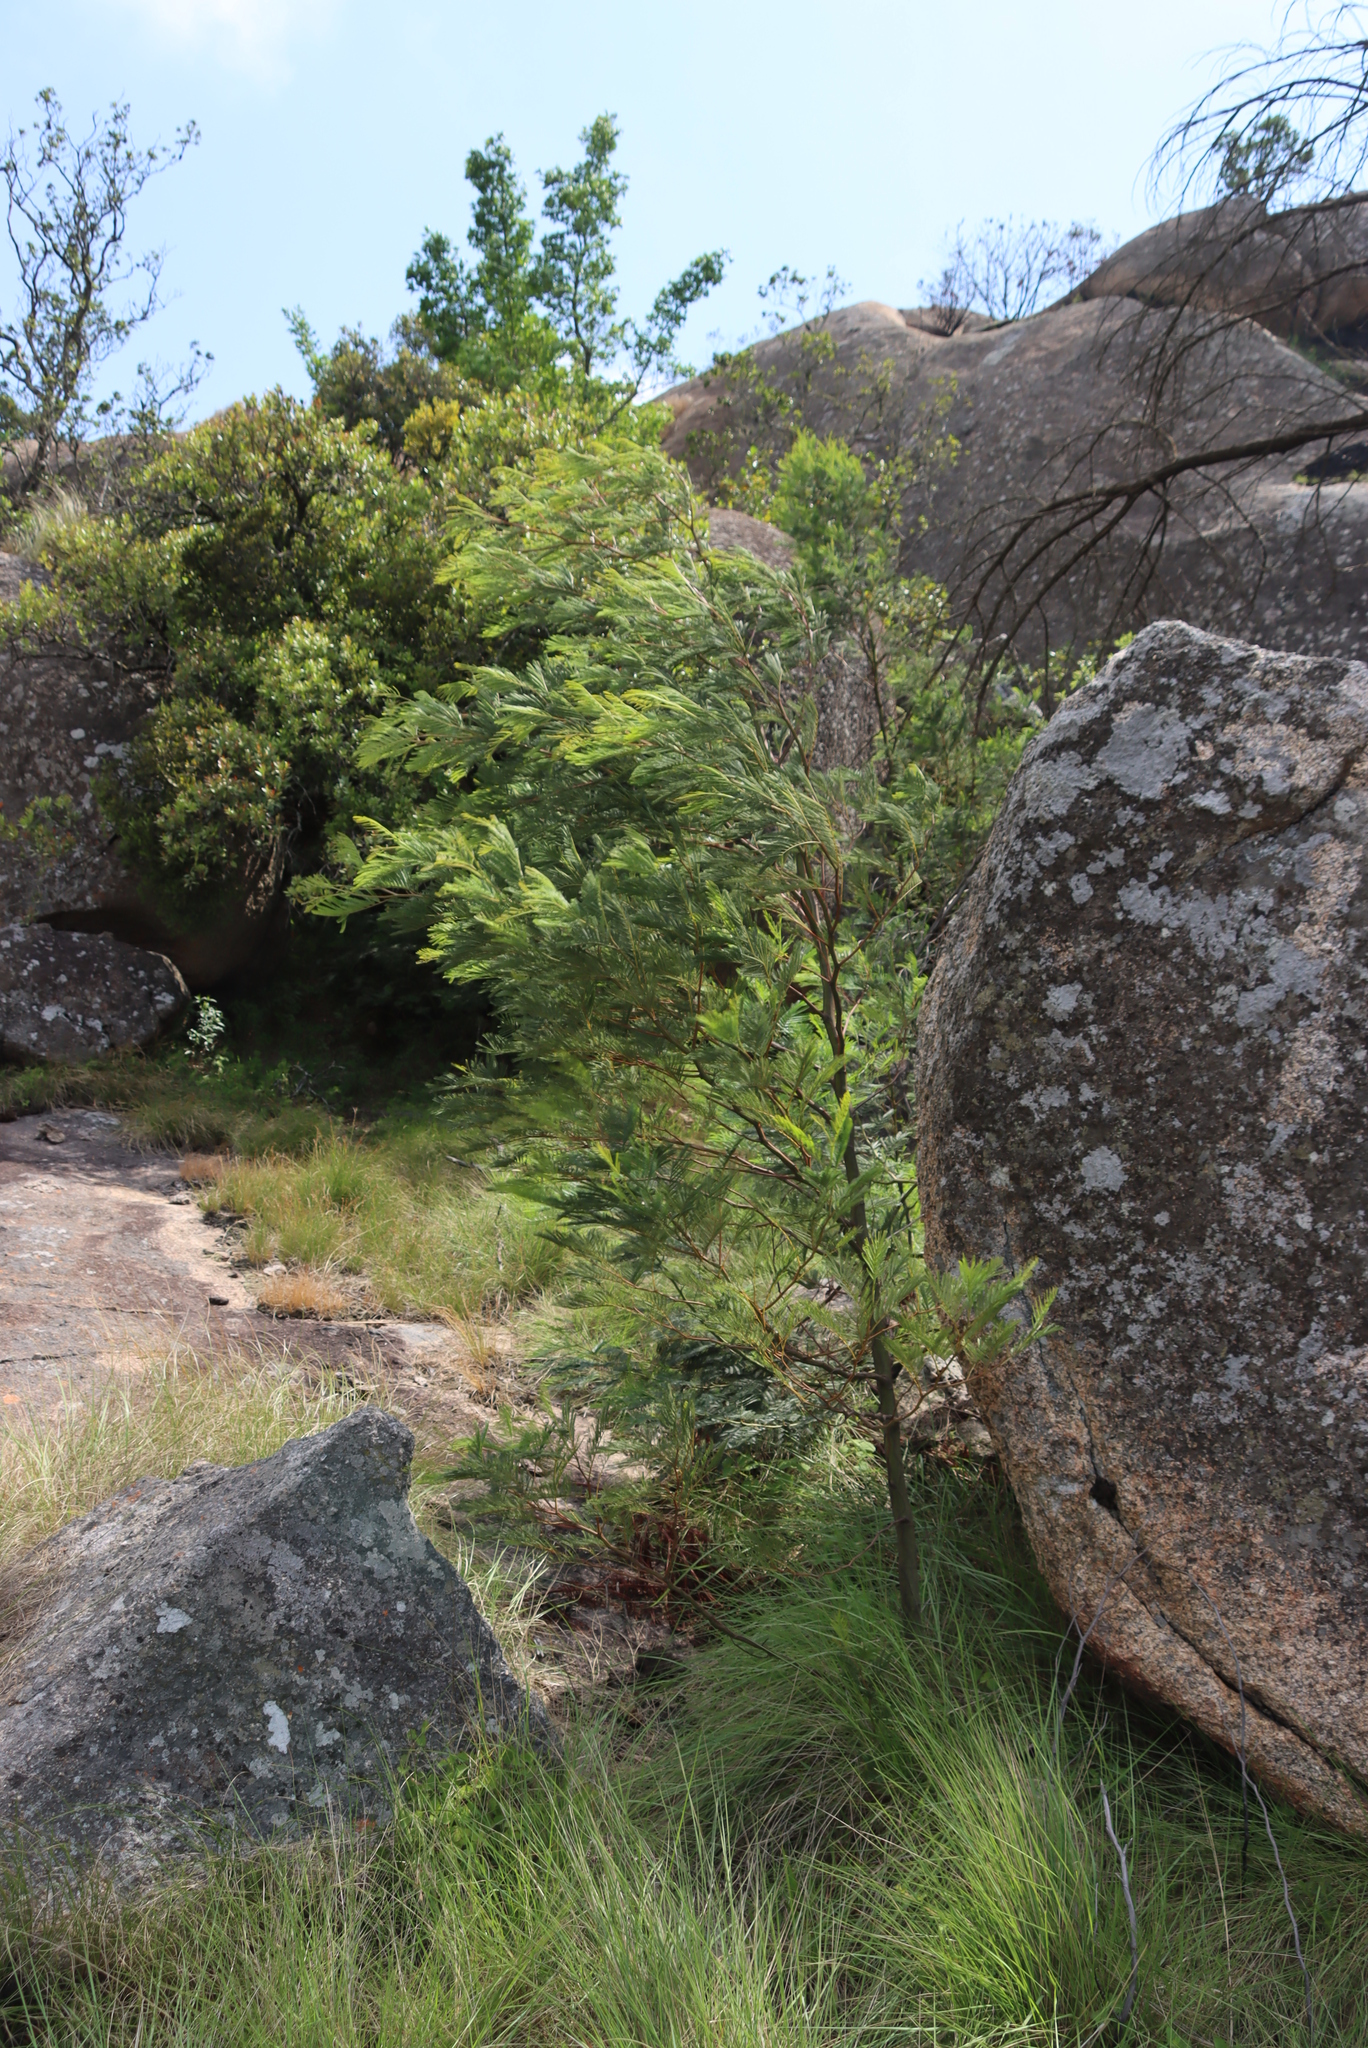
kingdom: Plantae
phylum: Tracheophyta
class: Magnoliopsida
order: Fabales
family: Fabaceae
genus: Acacia
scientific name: Acacia decurrens
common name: Green wattle
